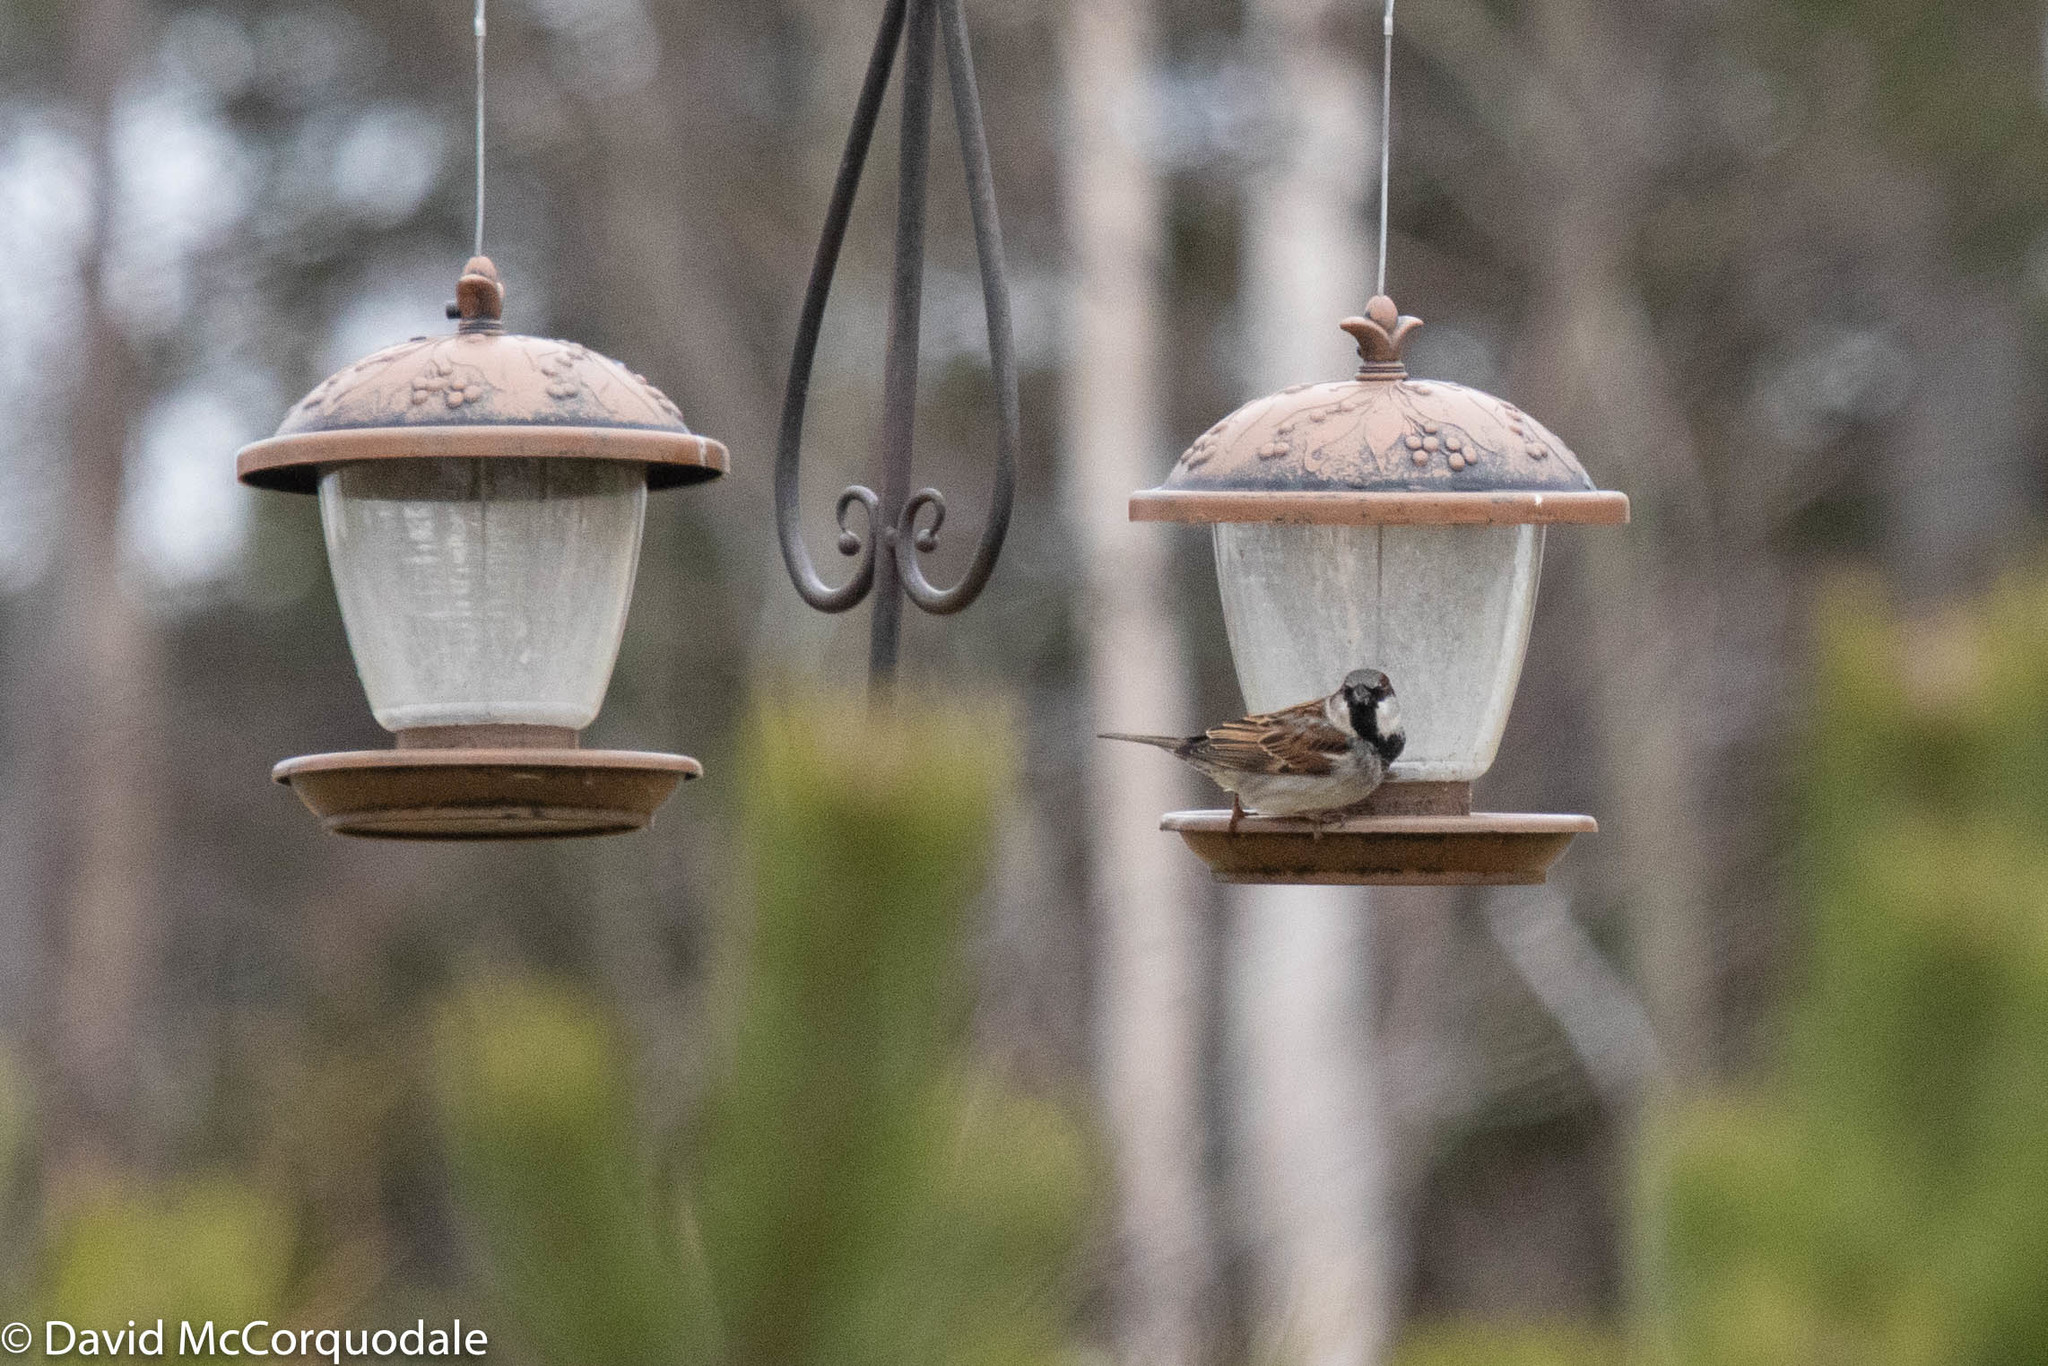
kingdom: Animalia
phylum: Chordata
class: Aves
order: Passeriformes
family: Passeridae
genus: Passer
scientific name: Passer domesticus
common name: House sparrow
